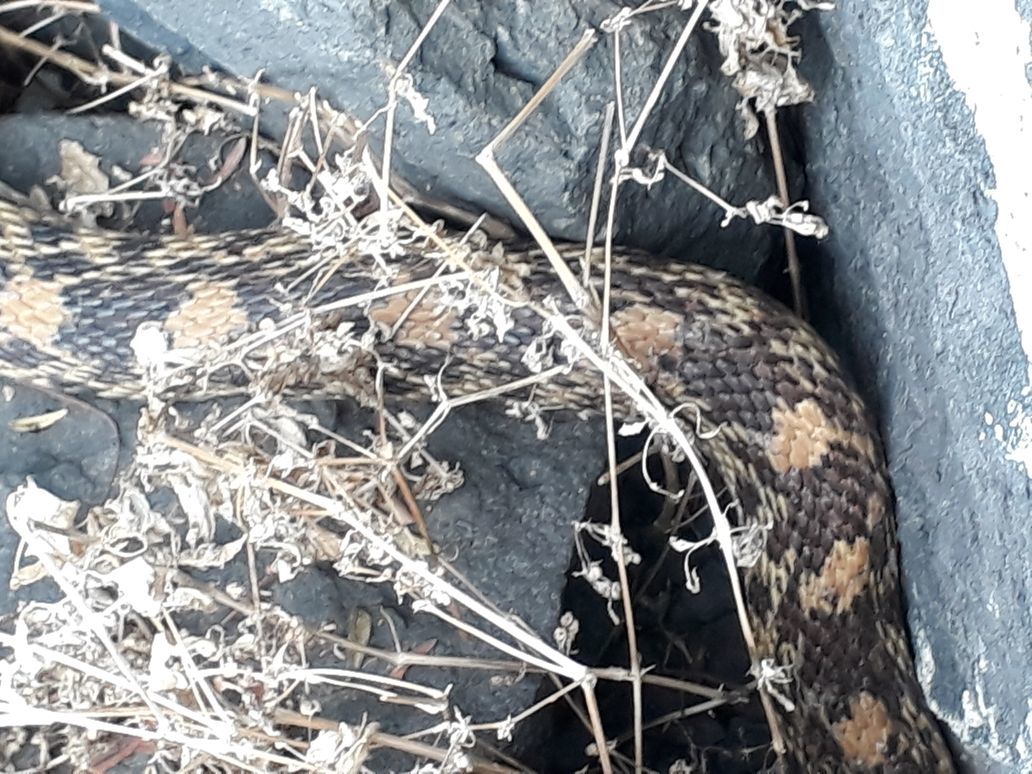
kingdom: Animalia
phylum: Chordata
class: Squamata
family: Colubridae
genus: Pituophis
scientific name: Pituophis deppei
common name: Mexican bull snake
